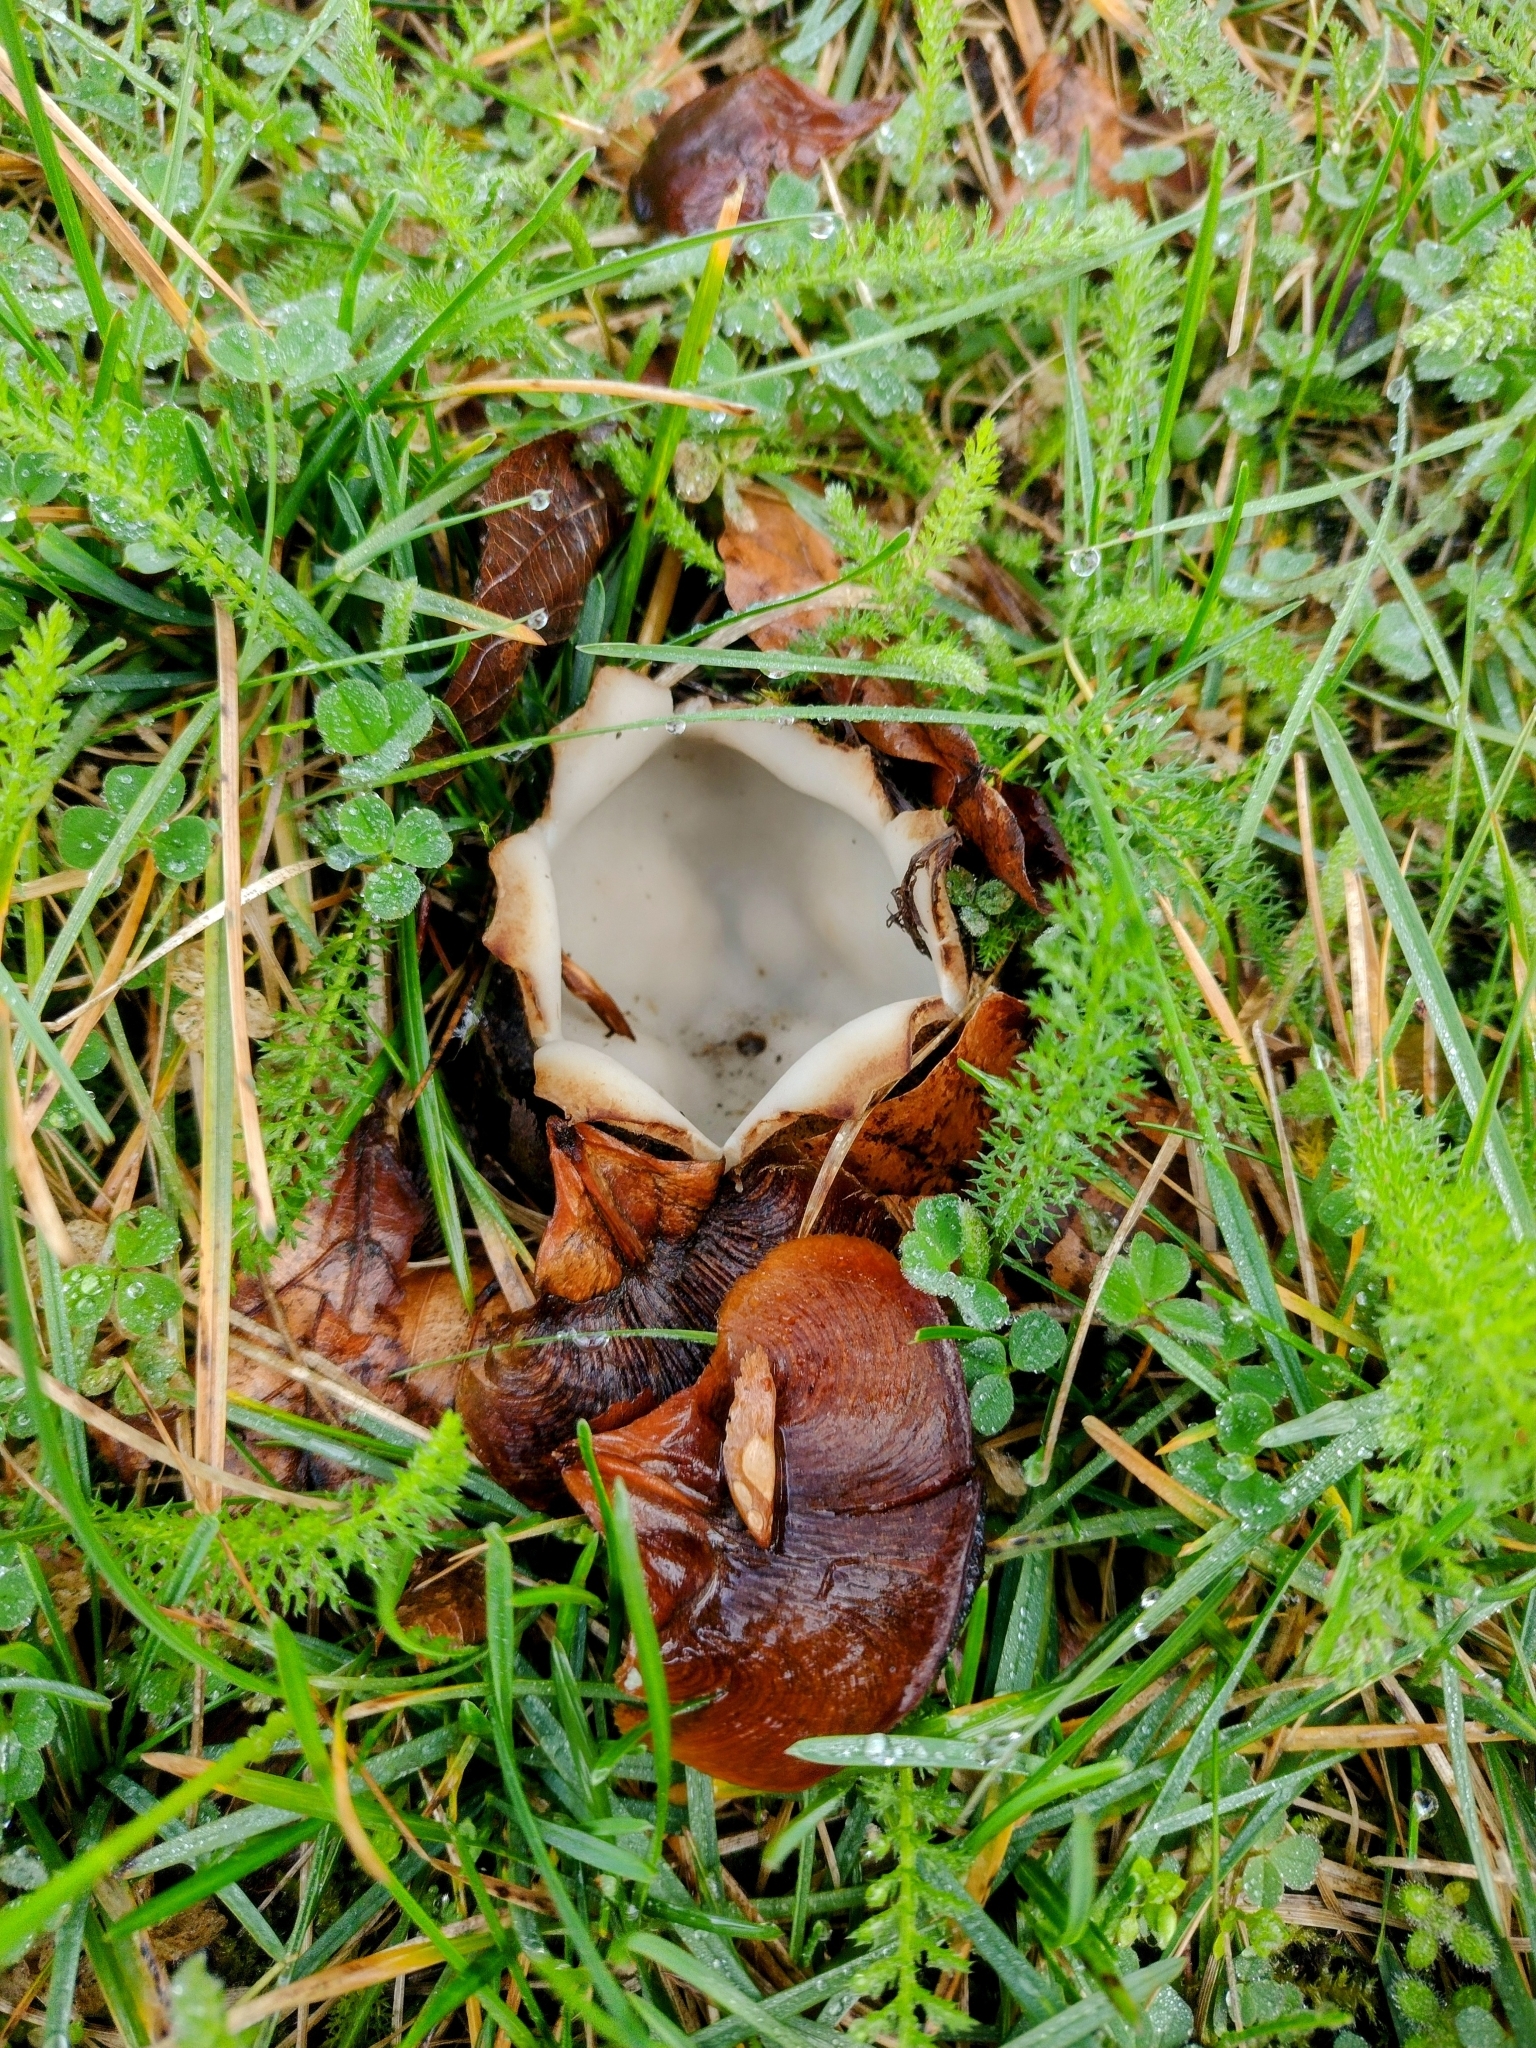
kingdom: Fungi
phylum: Ascomycota
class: Pezizomycetes
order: Pezizales
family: Pyronemataceae
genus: Geopora
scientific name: Geopora sumneriana
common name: Cedar cup
